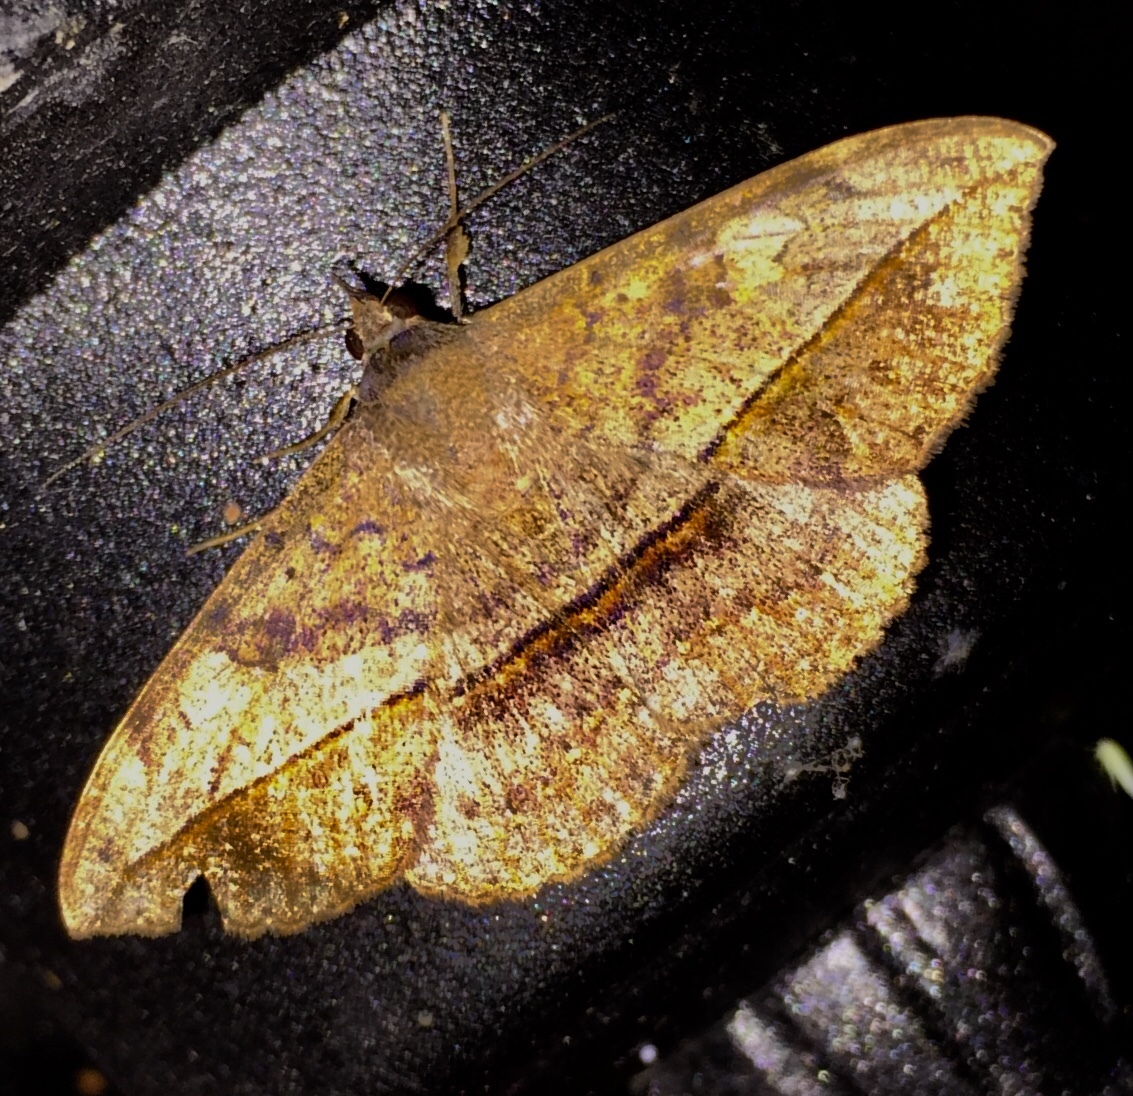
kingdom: Animalia
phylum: Arthropoda
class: Insecta
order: Lepidoptera
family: Erebidae
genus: Anticarsia
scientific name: Anticarsia gemmatalis
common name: Cutworm moth
